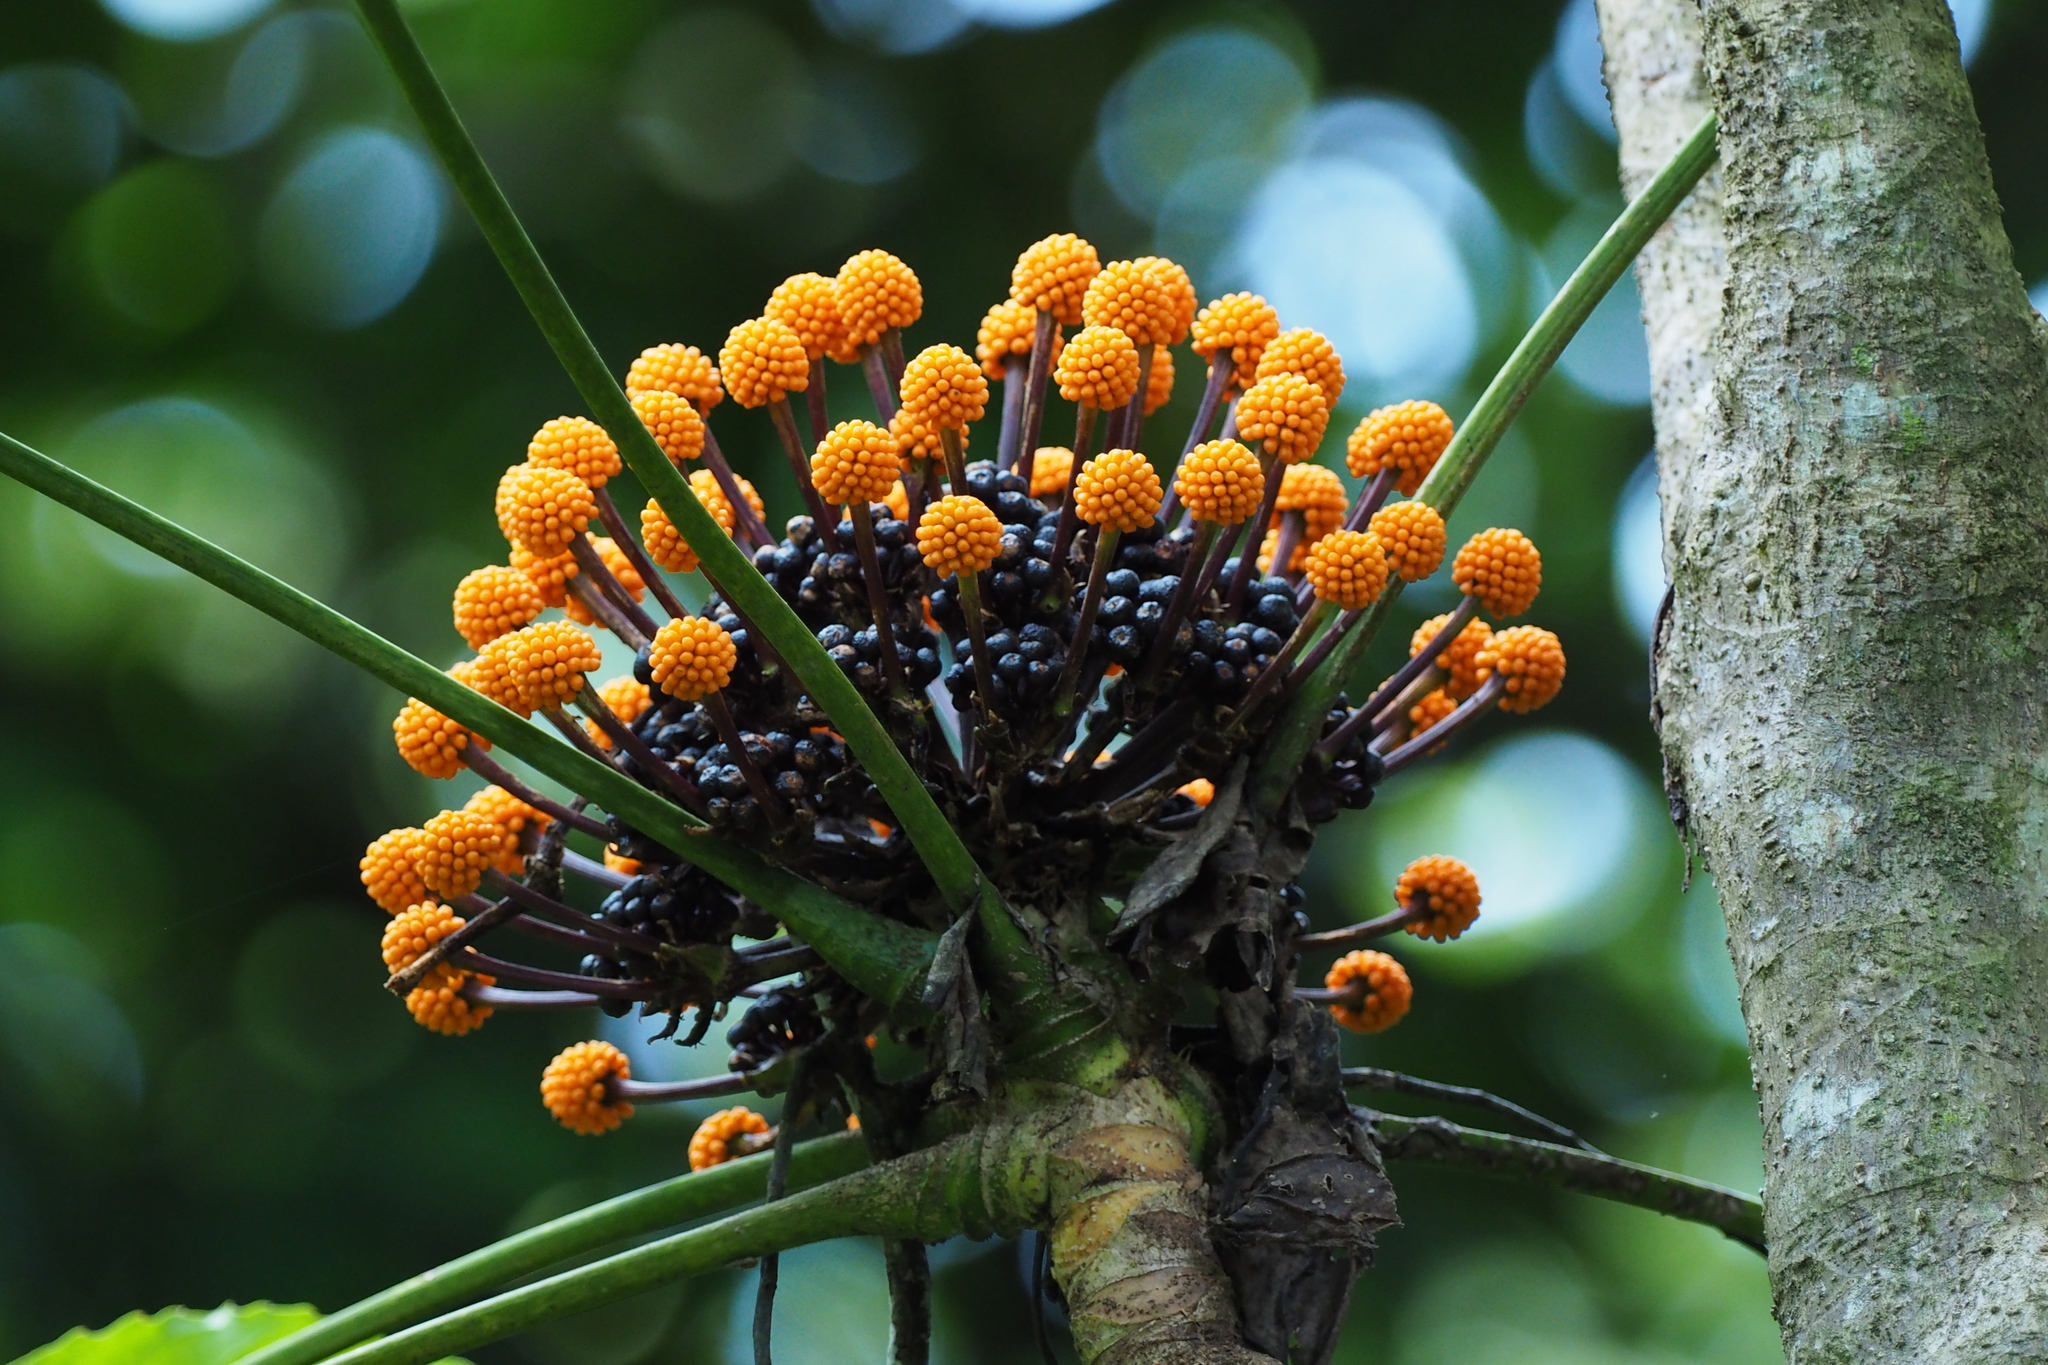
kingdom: Plantae
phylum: Tracheophyta
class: Magnoliopsida
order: Apiales
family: Araliaceae
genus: Osmoxylon
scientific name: Osmoxylon truncatum
